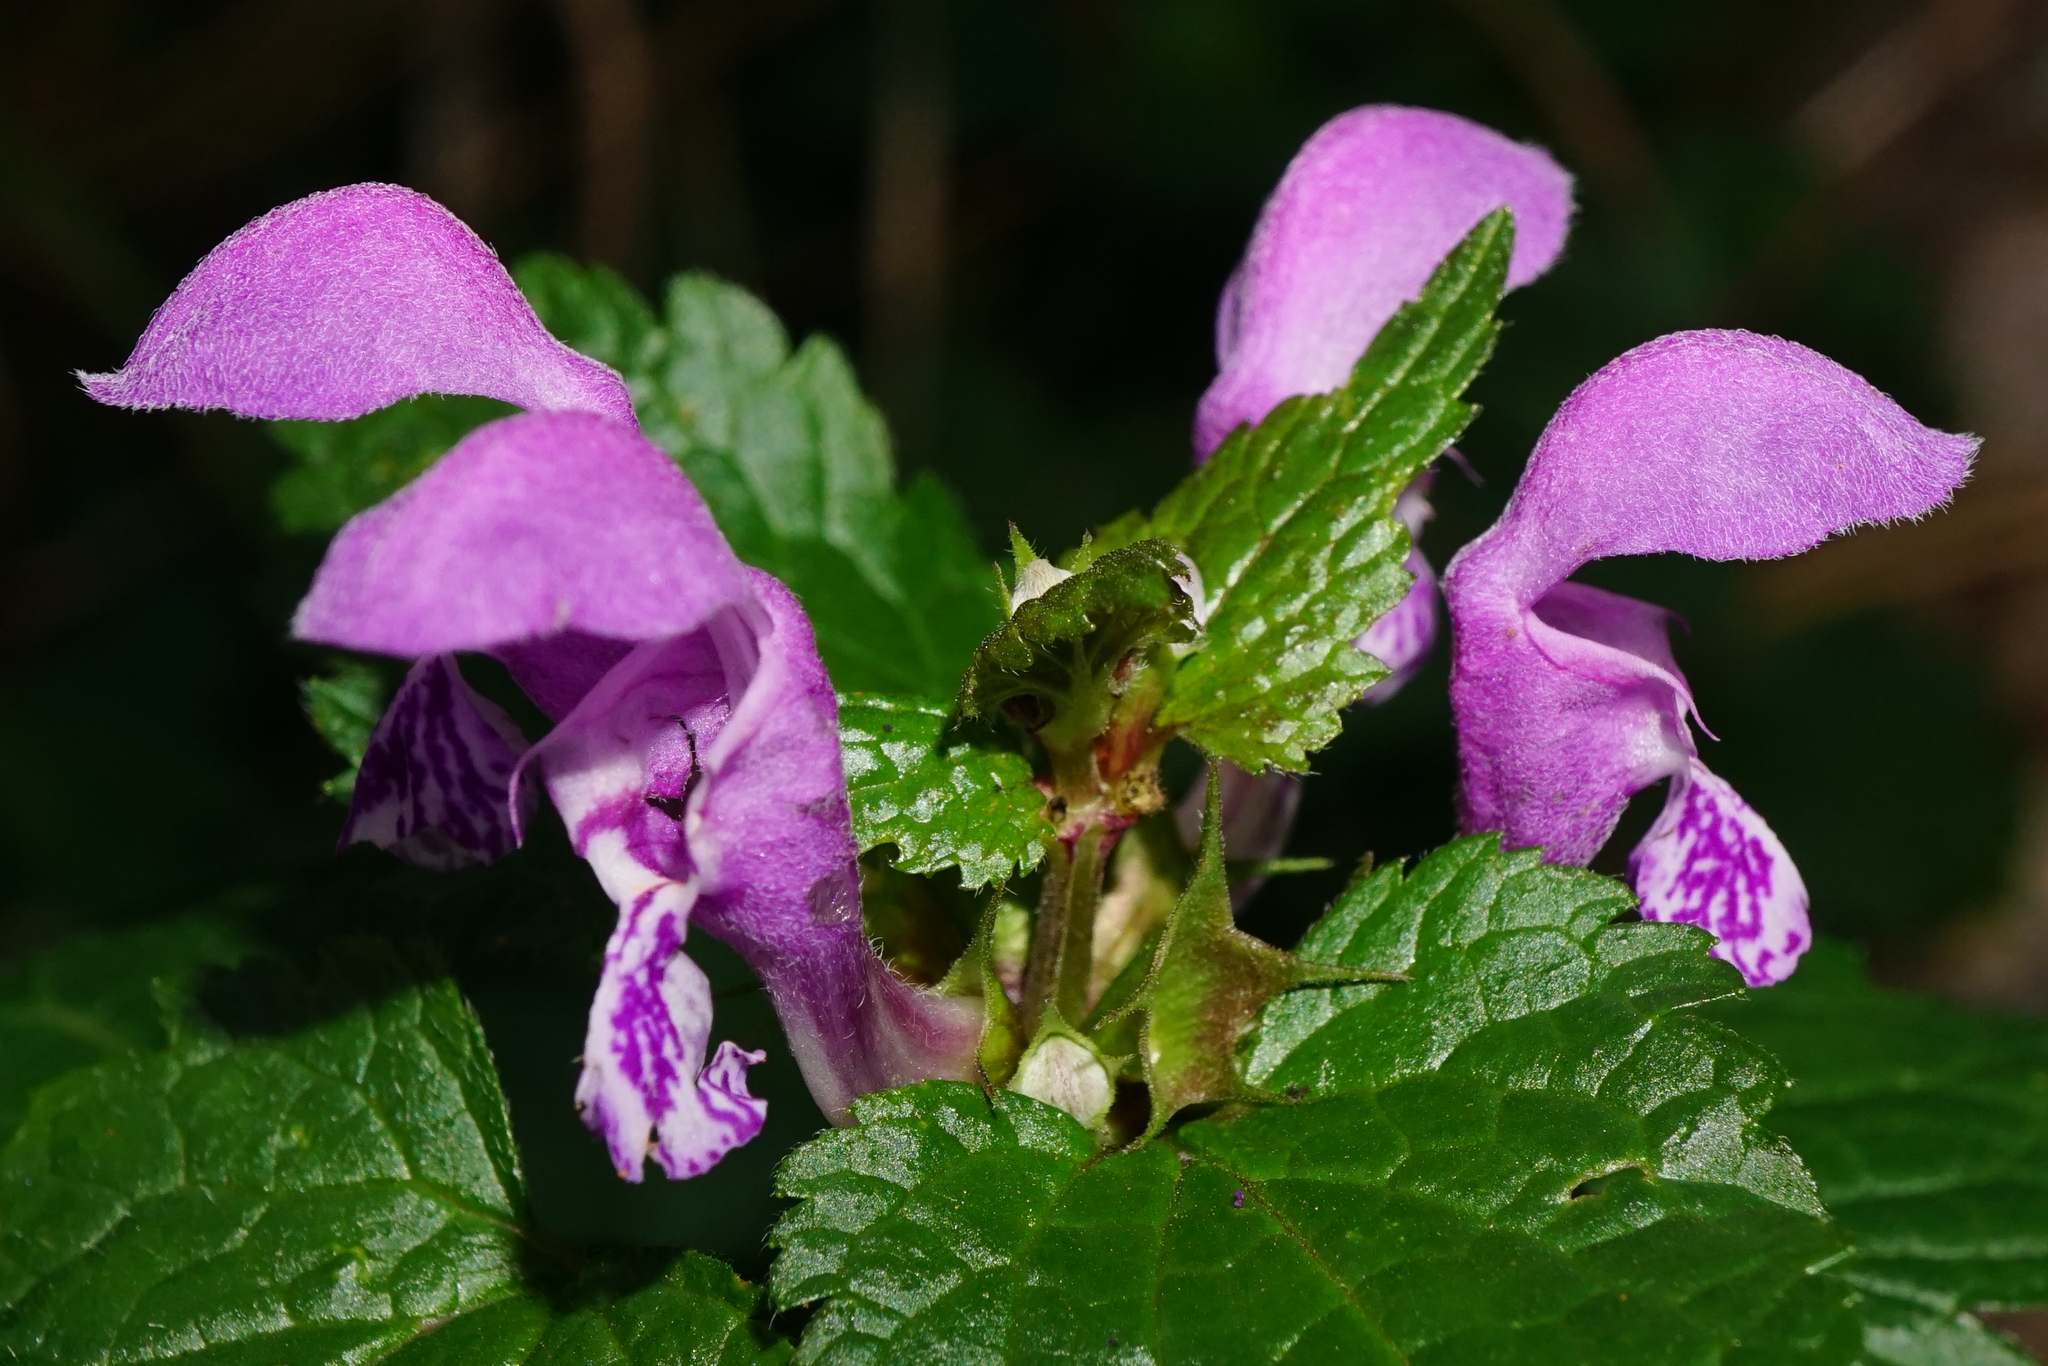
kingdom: Plantae
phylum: Tracheophyta
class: Magnoliopsida
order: Lamiales
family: Lamiaceae
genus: Lamium
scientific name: Lamium maculatum
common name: Spotted dead-nettle
